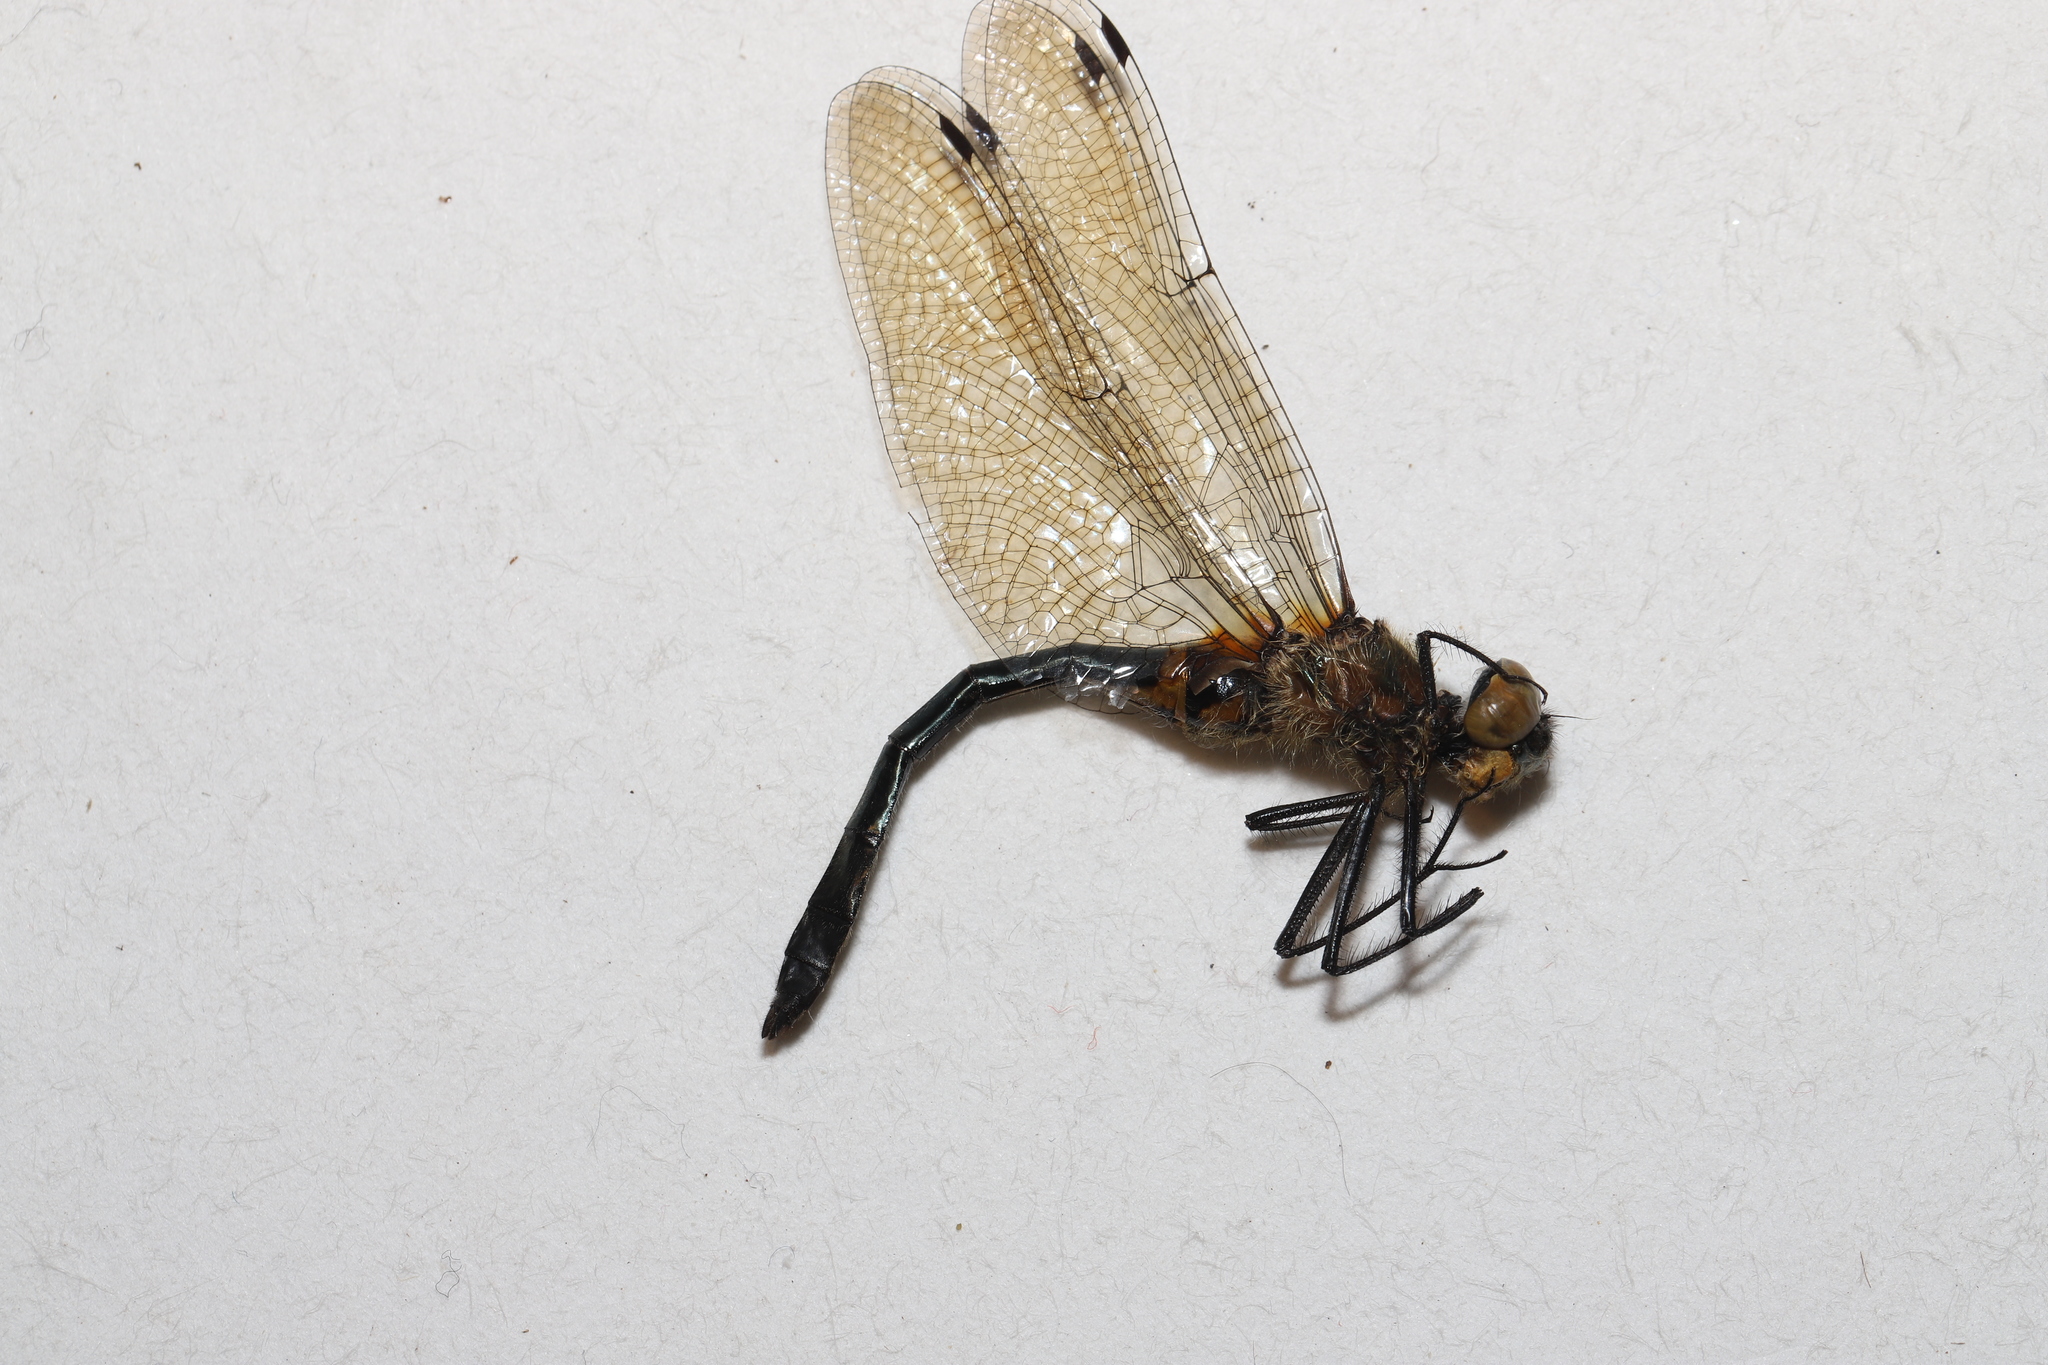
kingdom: Animalia
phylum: Arthropoda
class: Insecta
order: Odonata
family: Corduliidae
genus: Dorocordulia
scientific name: Dorocordulia libera
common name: Racket-tailed emerald
